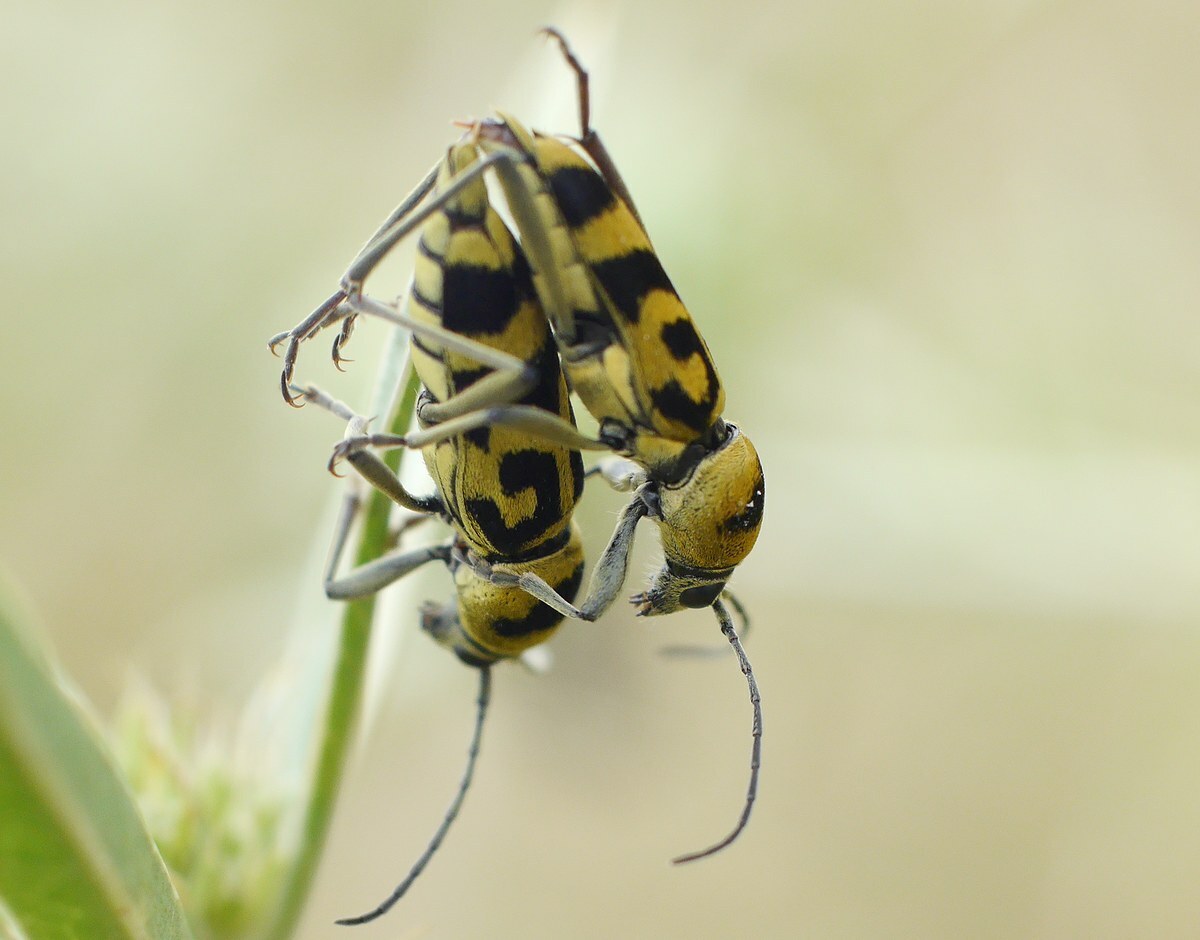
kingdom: Animalia
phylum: Arthropoda
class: Insecta
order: Coleoptera
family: Cerambycidae
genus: Chlorophorus
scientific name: Chlorophorus varius
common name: Grape wood borer
